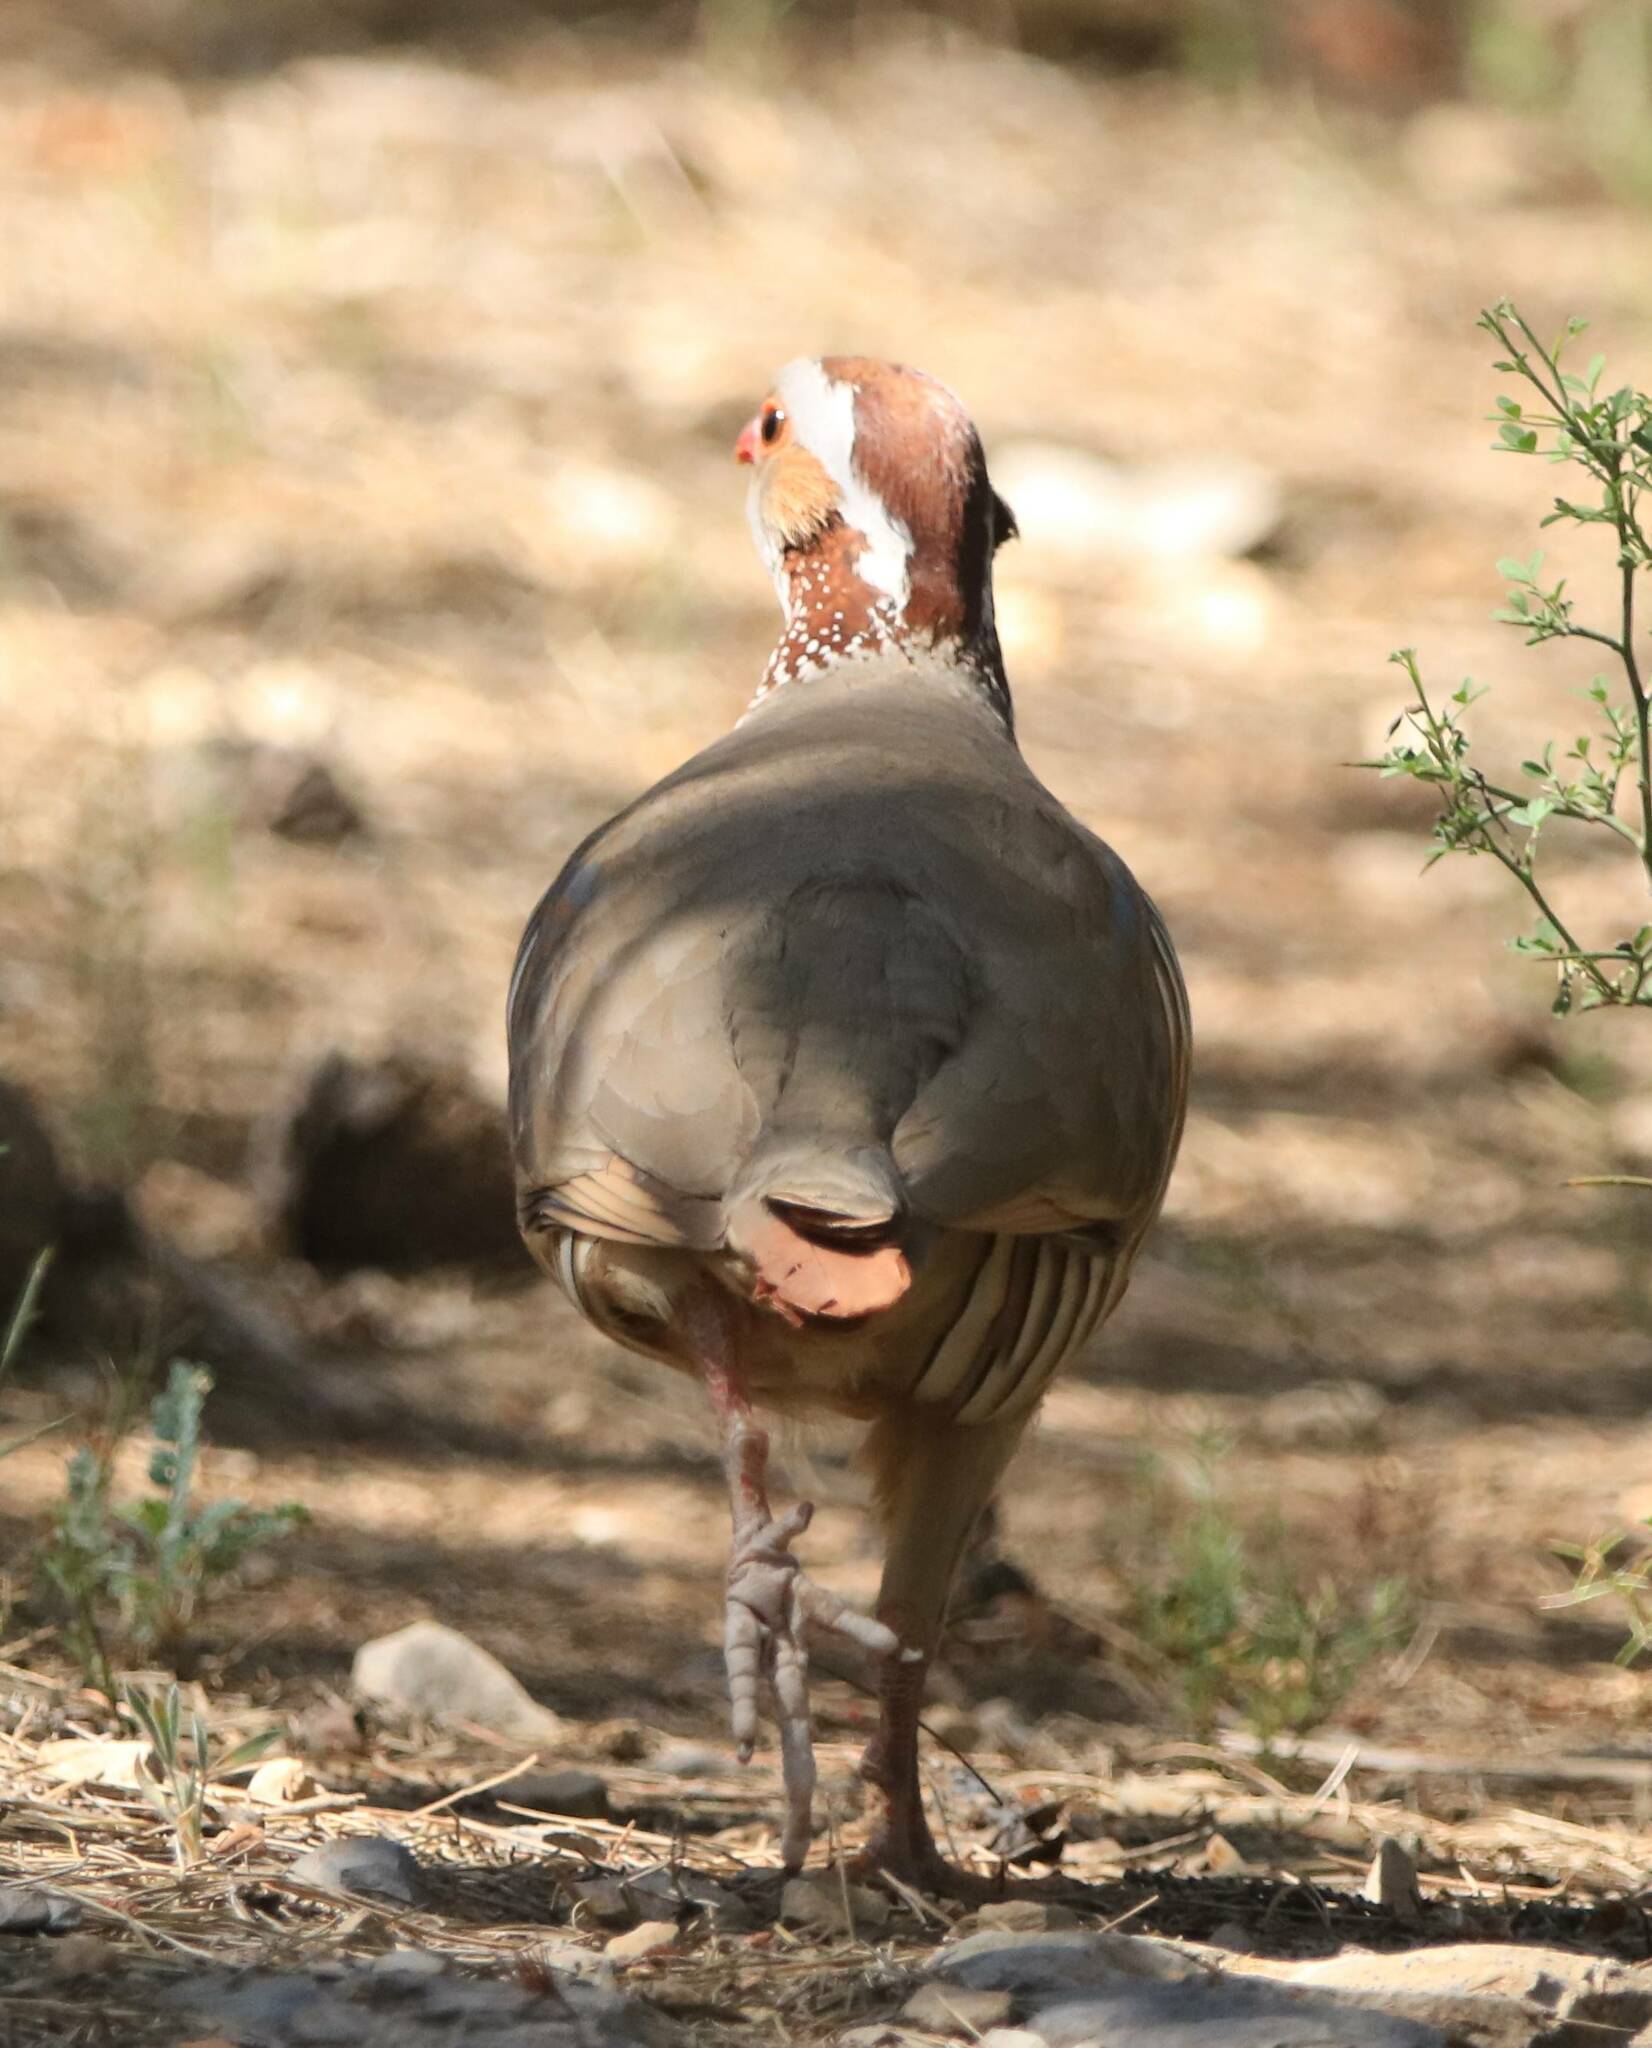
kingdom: Animalia
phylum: Chordata
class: Aves
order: Galliformes
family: Phasianidae
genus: Alectoris
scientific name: Alectoris barbara
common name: Barbary partridge
